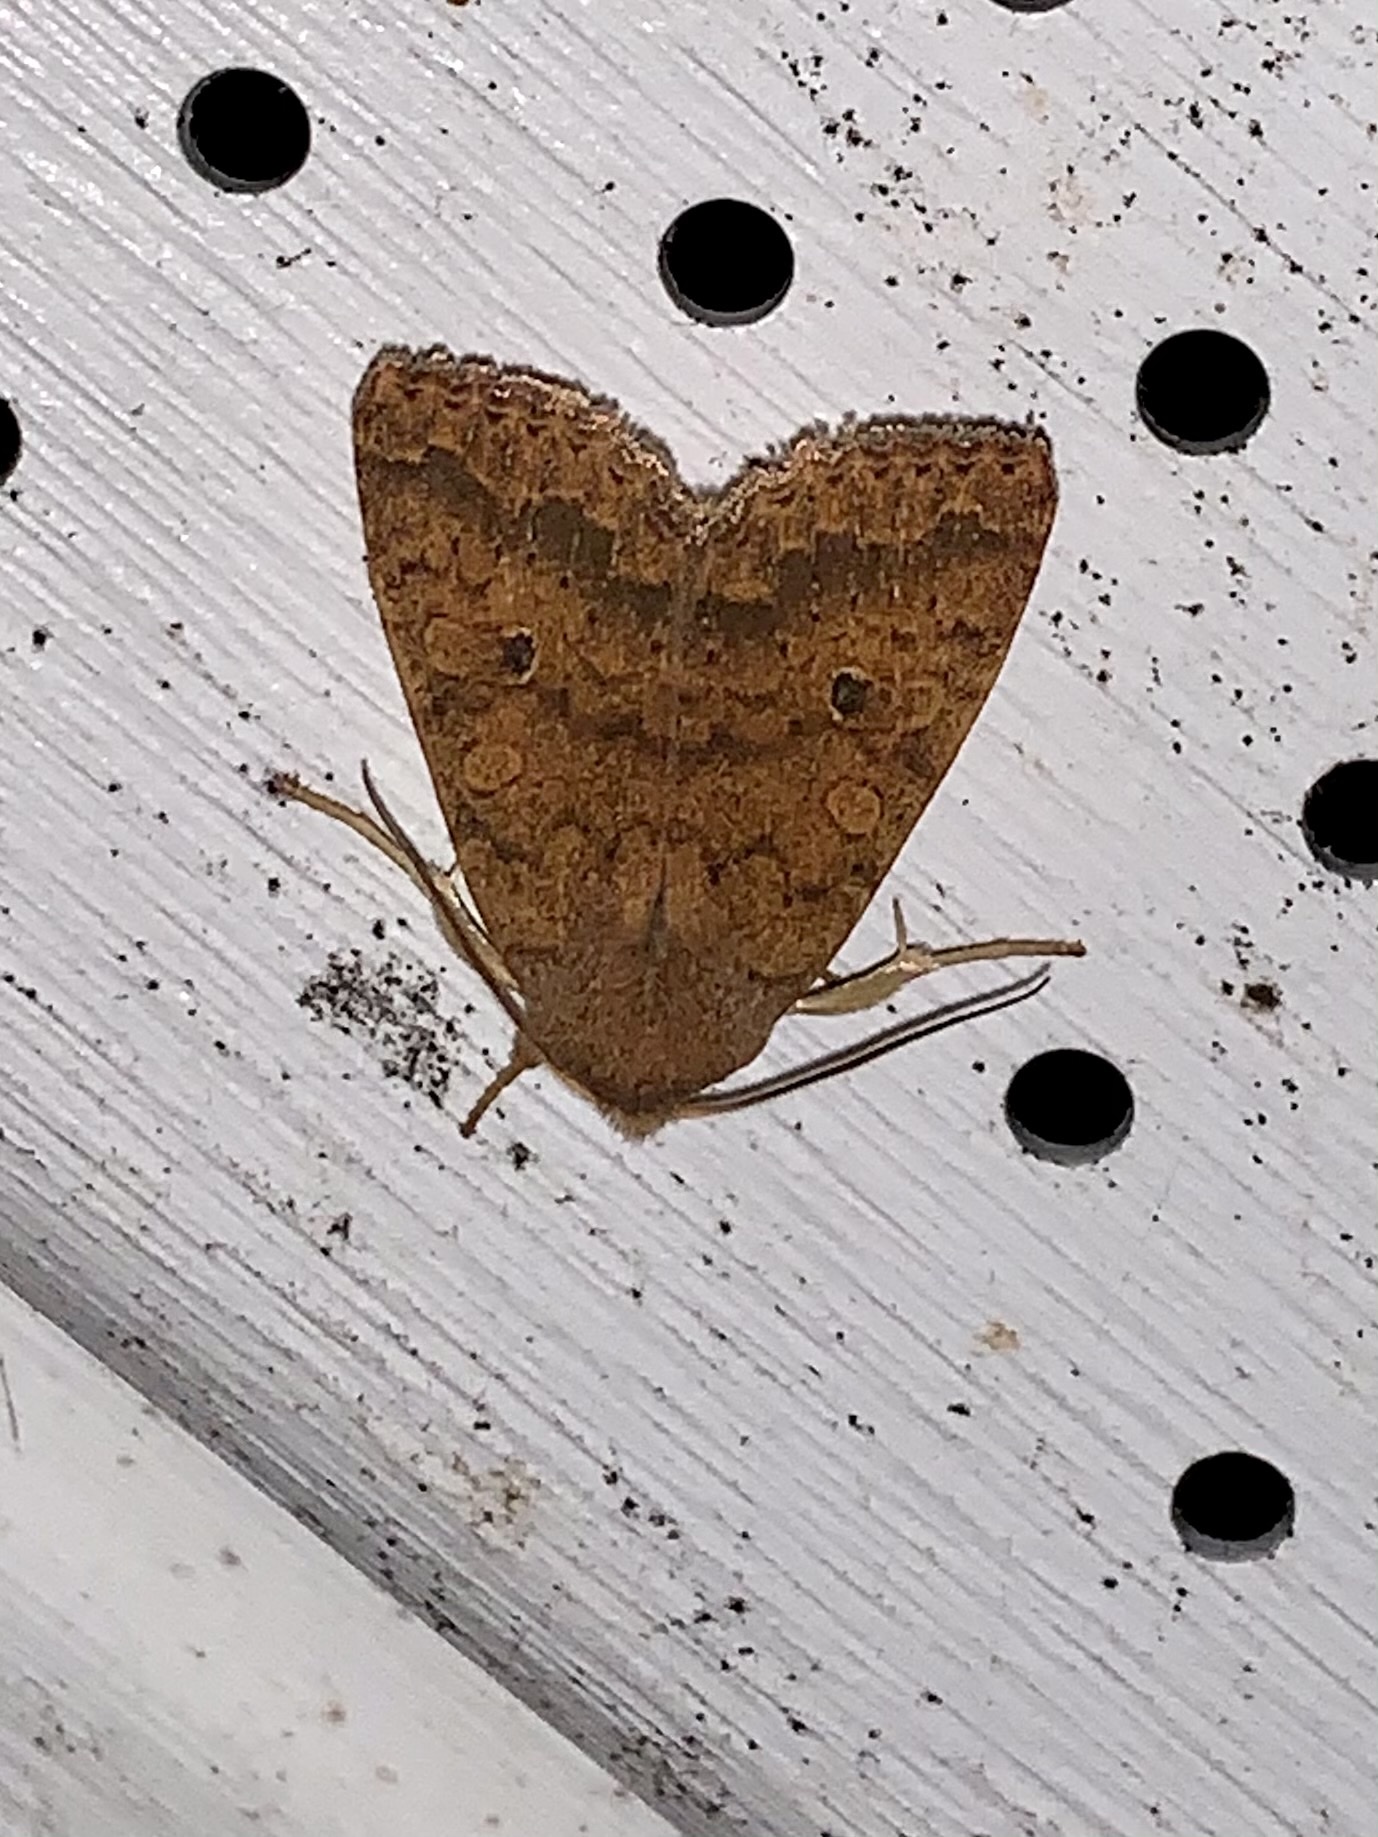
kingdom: Animalia
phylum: Arthropoda
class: Insecta
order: Lepidoptera
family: Noctuidae
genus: Agrochola
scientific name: Agrochola bicolorago
